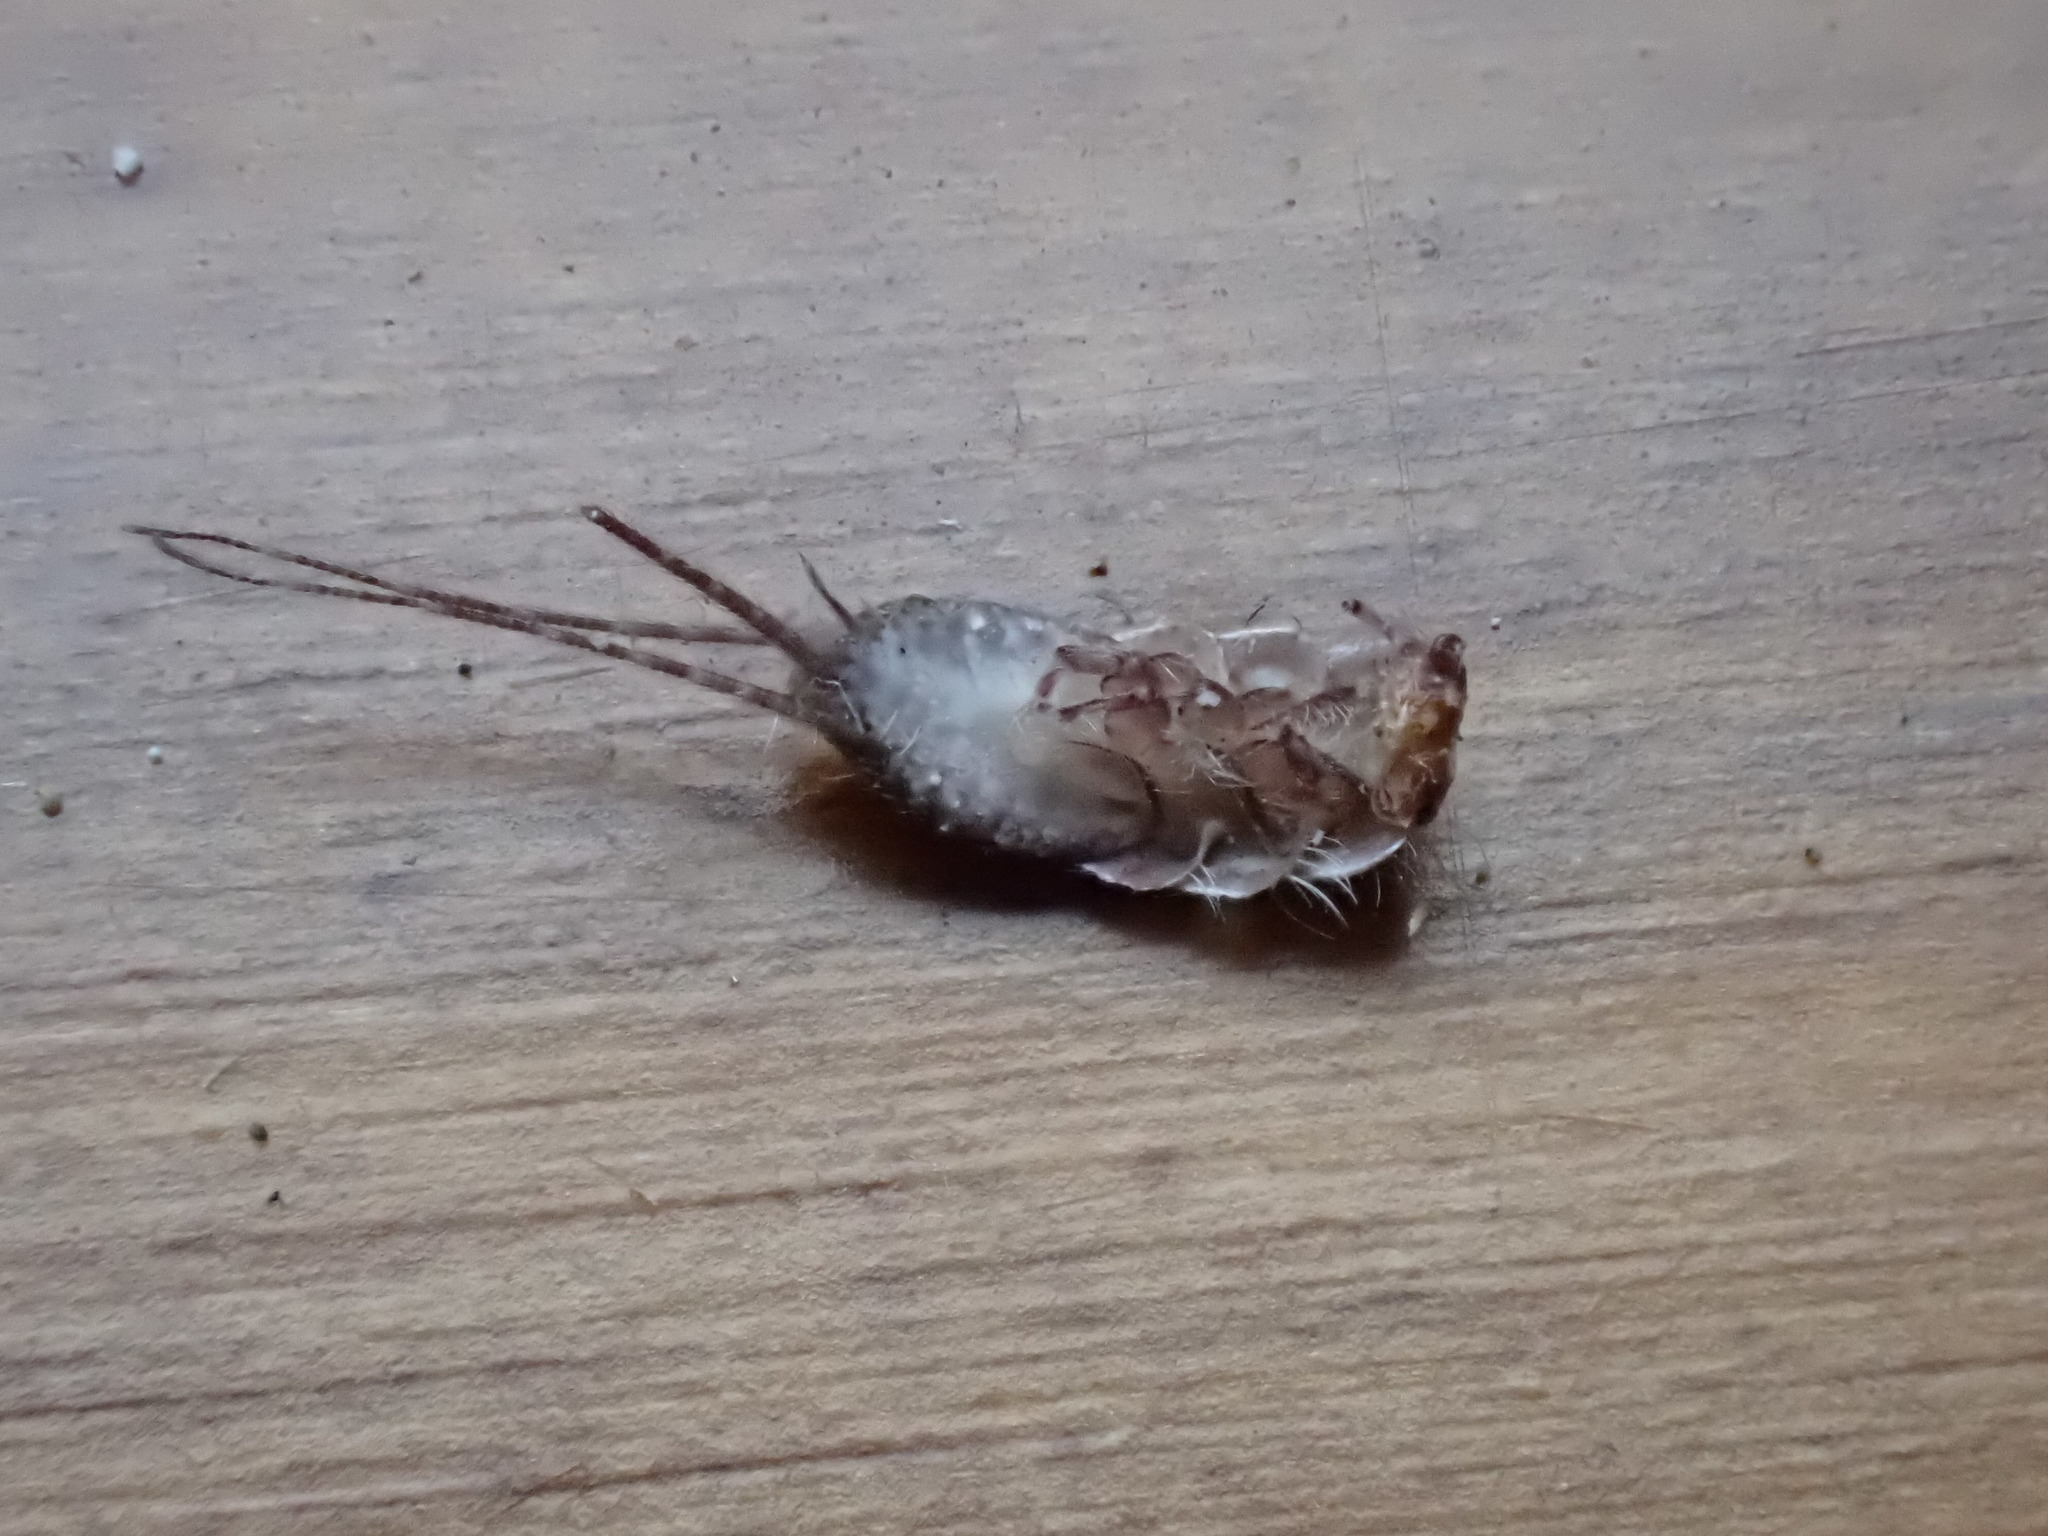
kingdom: Animalia
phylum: Arthropoda
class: Insecta
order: Zygentoma
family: Lepismatidae
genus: Ctenolepisma
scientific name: Ctenolepisma lineata
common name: Four-lined silverfish
